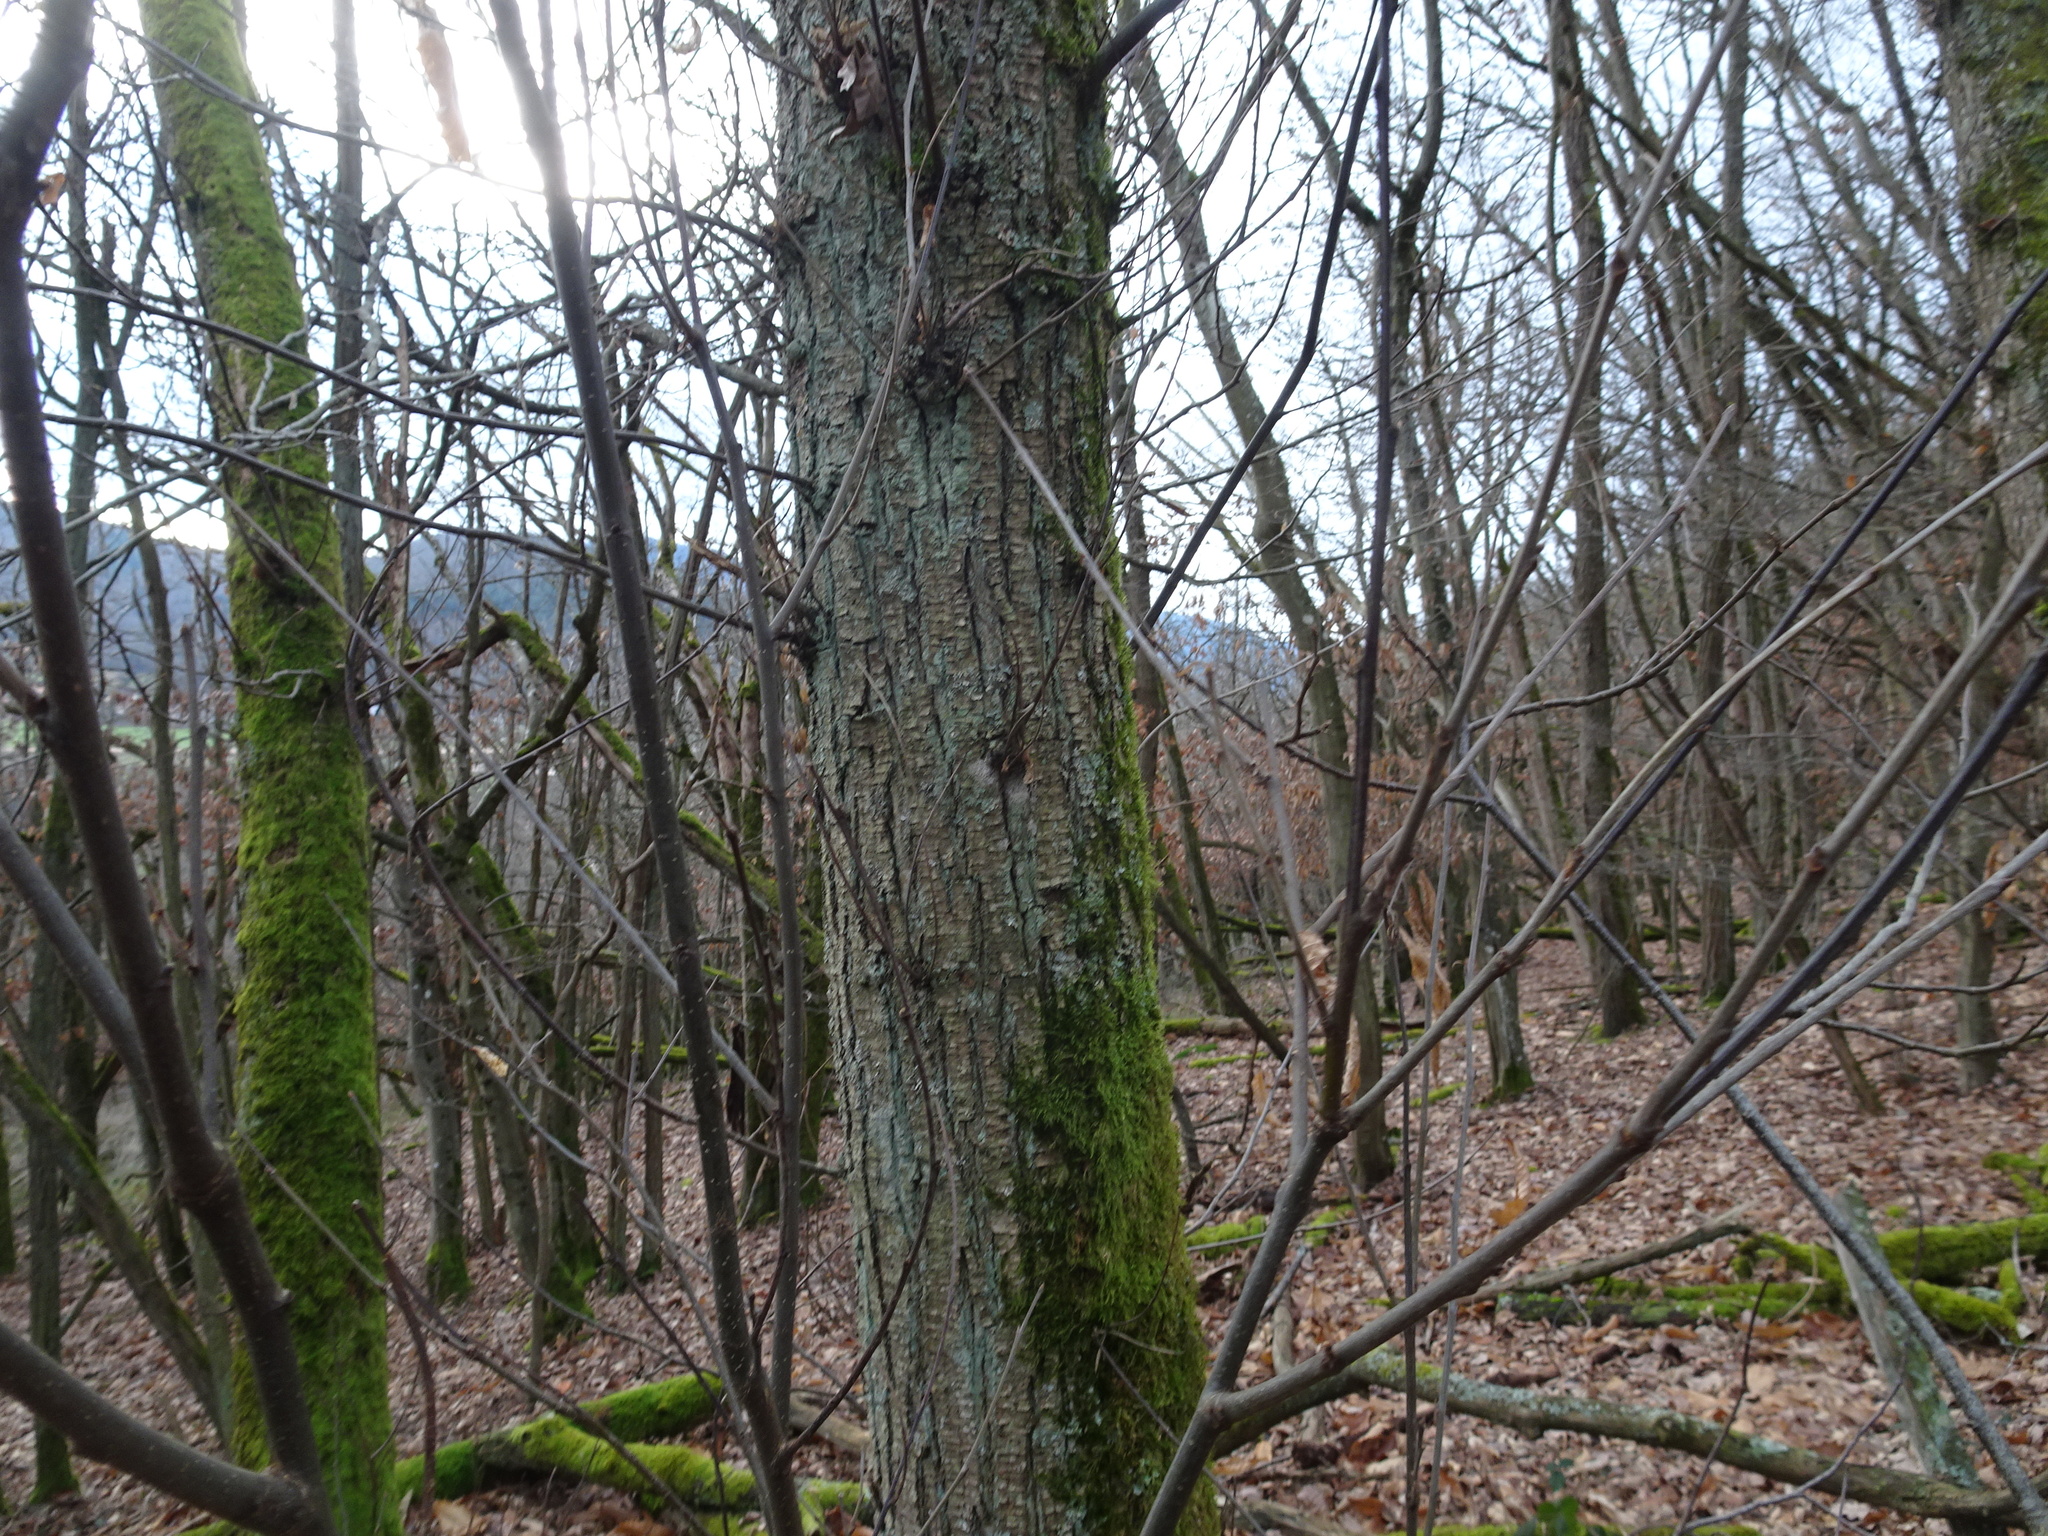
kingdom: Plantae
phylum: Tracheophyta
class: Magnoliopsida
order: Fagales
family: Fagaceae
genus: Castanea
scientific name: Castanea sativa
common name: Sweet chestnut
